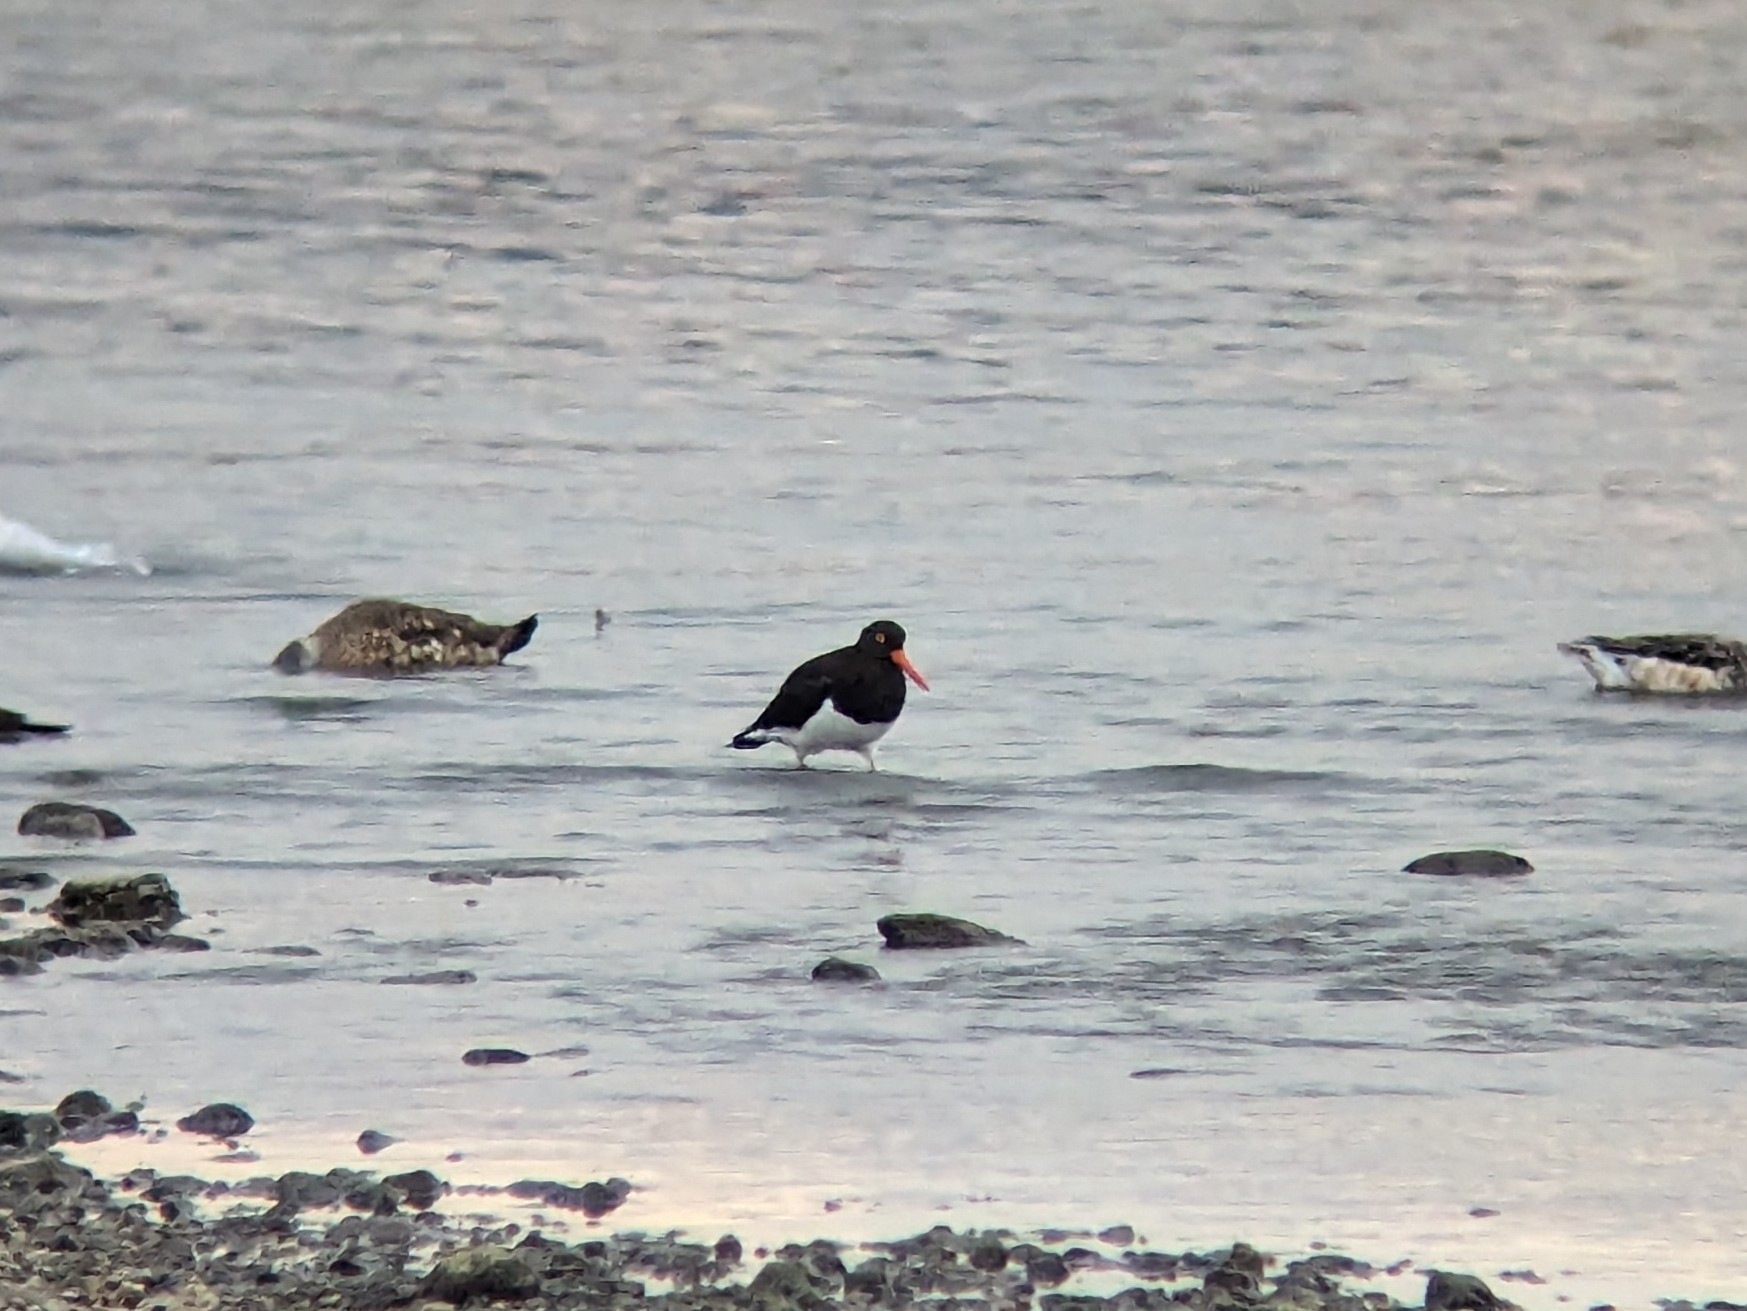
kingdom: Animalia
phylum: Chordata
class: Aves
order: Charadriiformes
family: Haematopodidae
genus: Haematopus
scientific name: Haematopus leucopodus
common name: Magellanic oystercatcher
